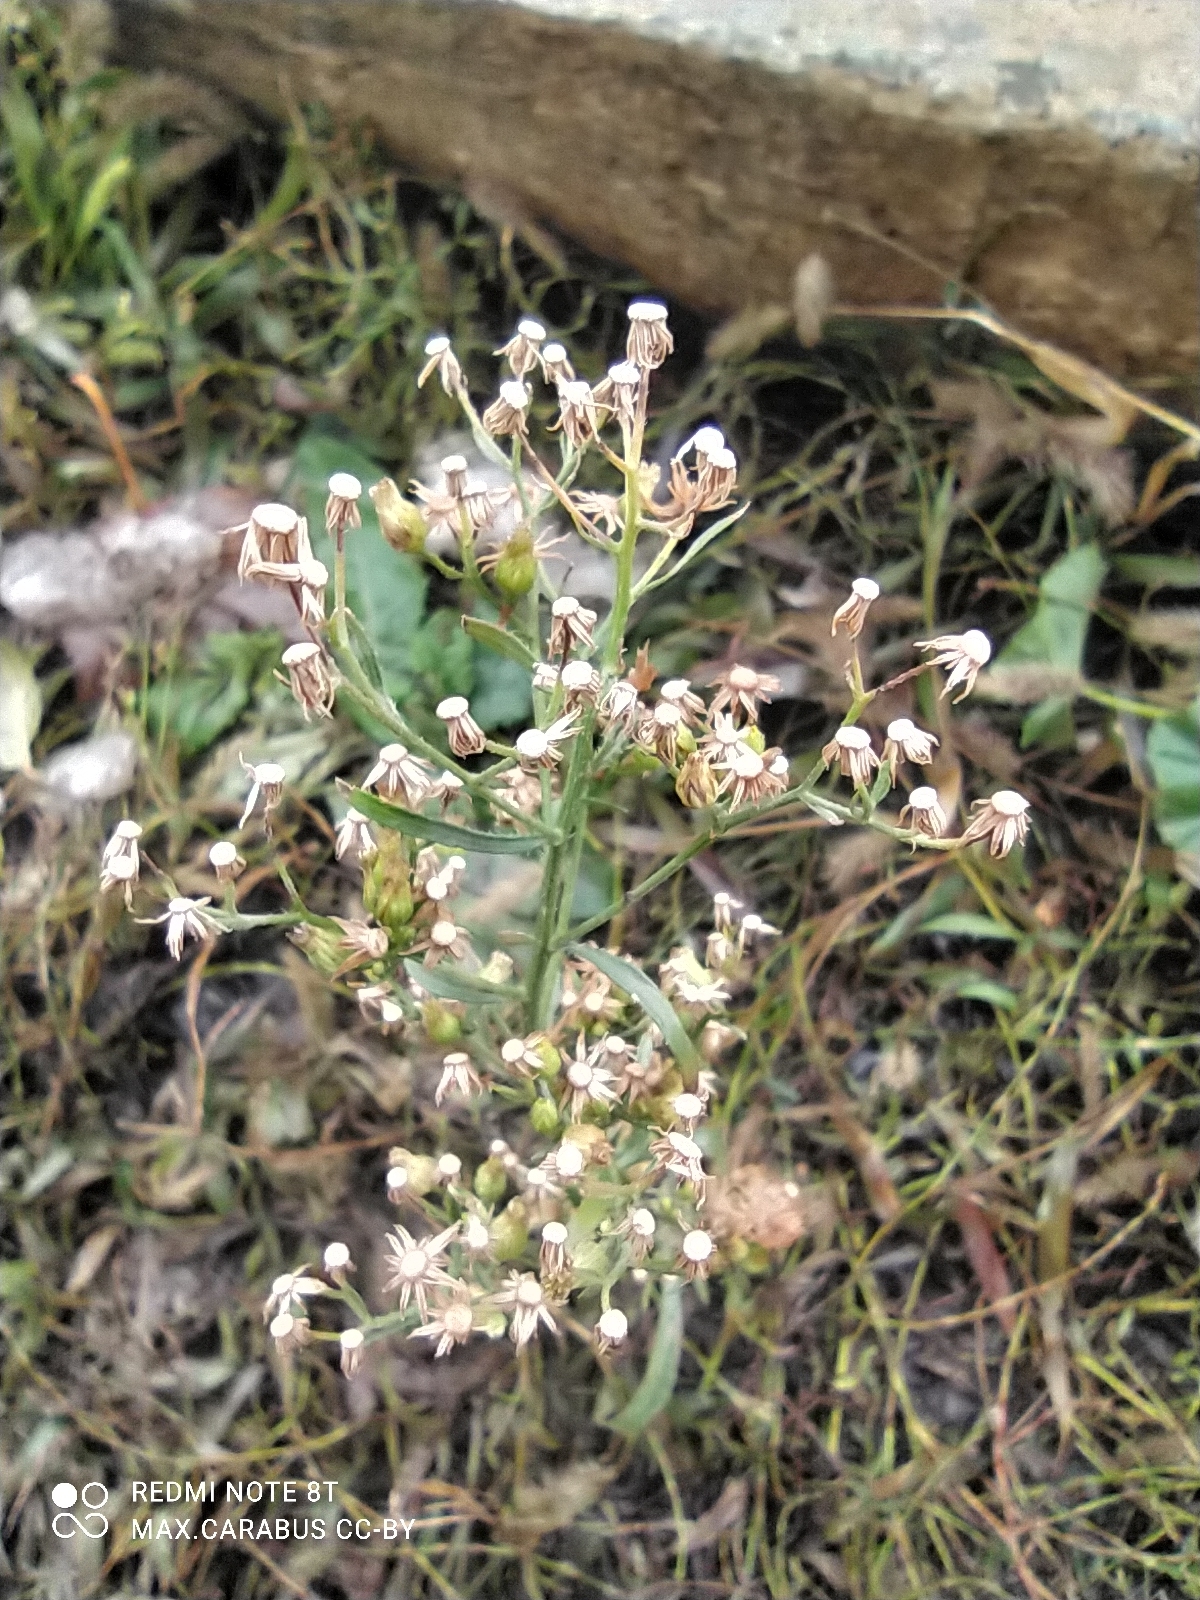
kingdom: Plantae
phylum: Tracheophyta
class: Magnoliopsida
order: Asterales
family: Asteraceae
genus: Erigeron
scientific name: Erigeron canadensis
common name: Canadian fleabane
